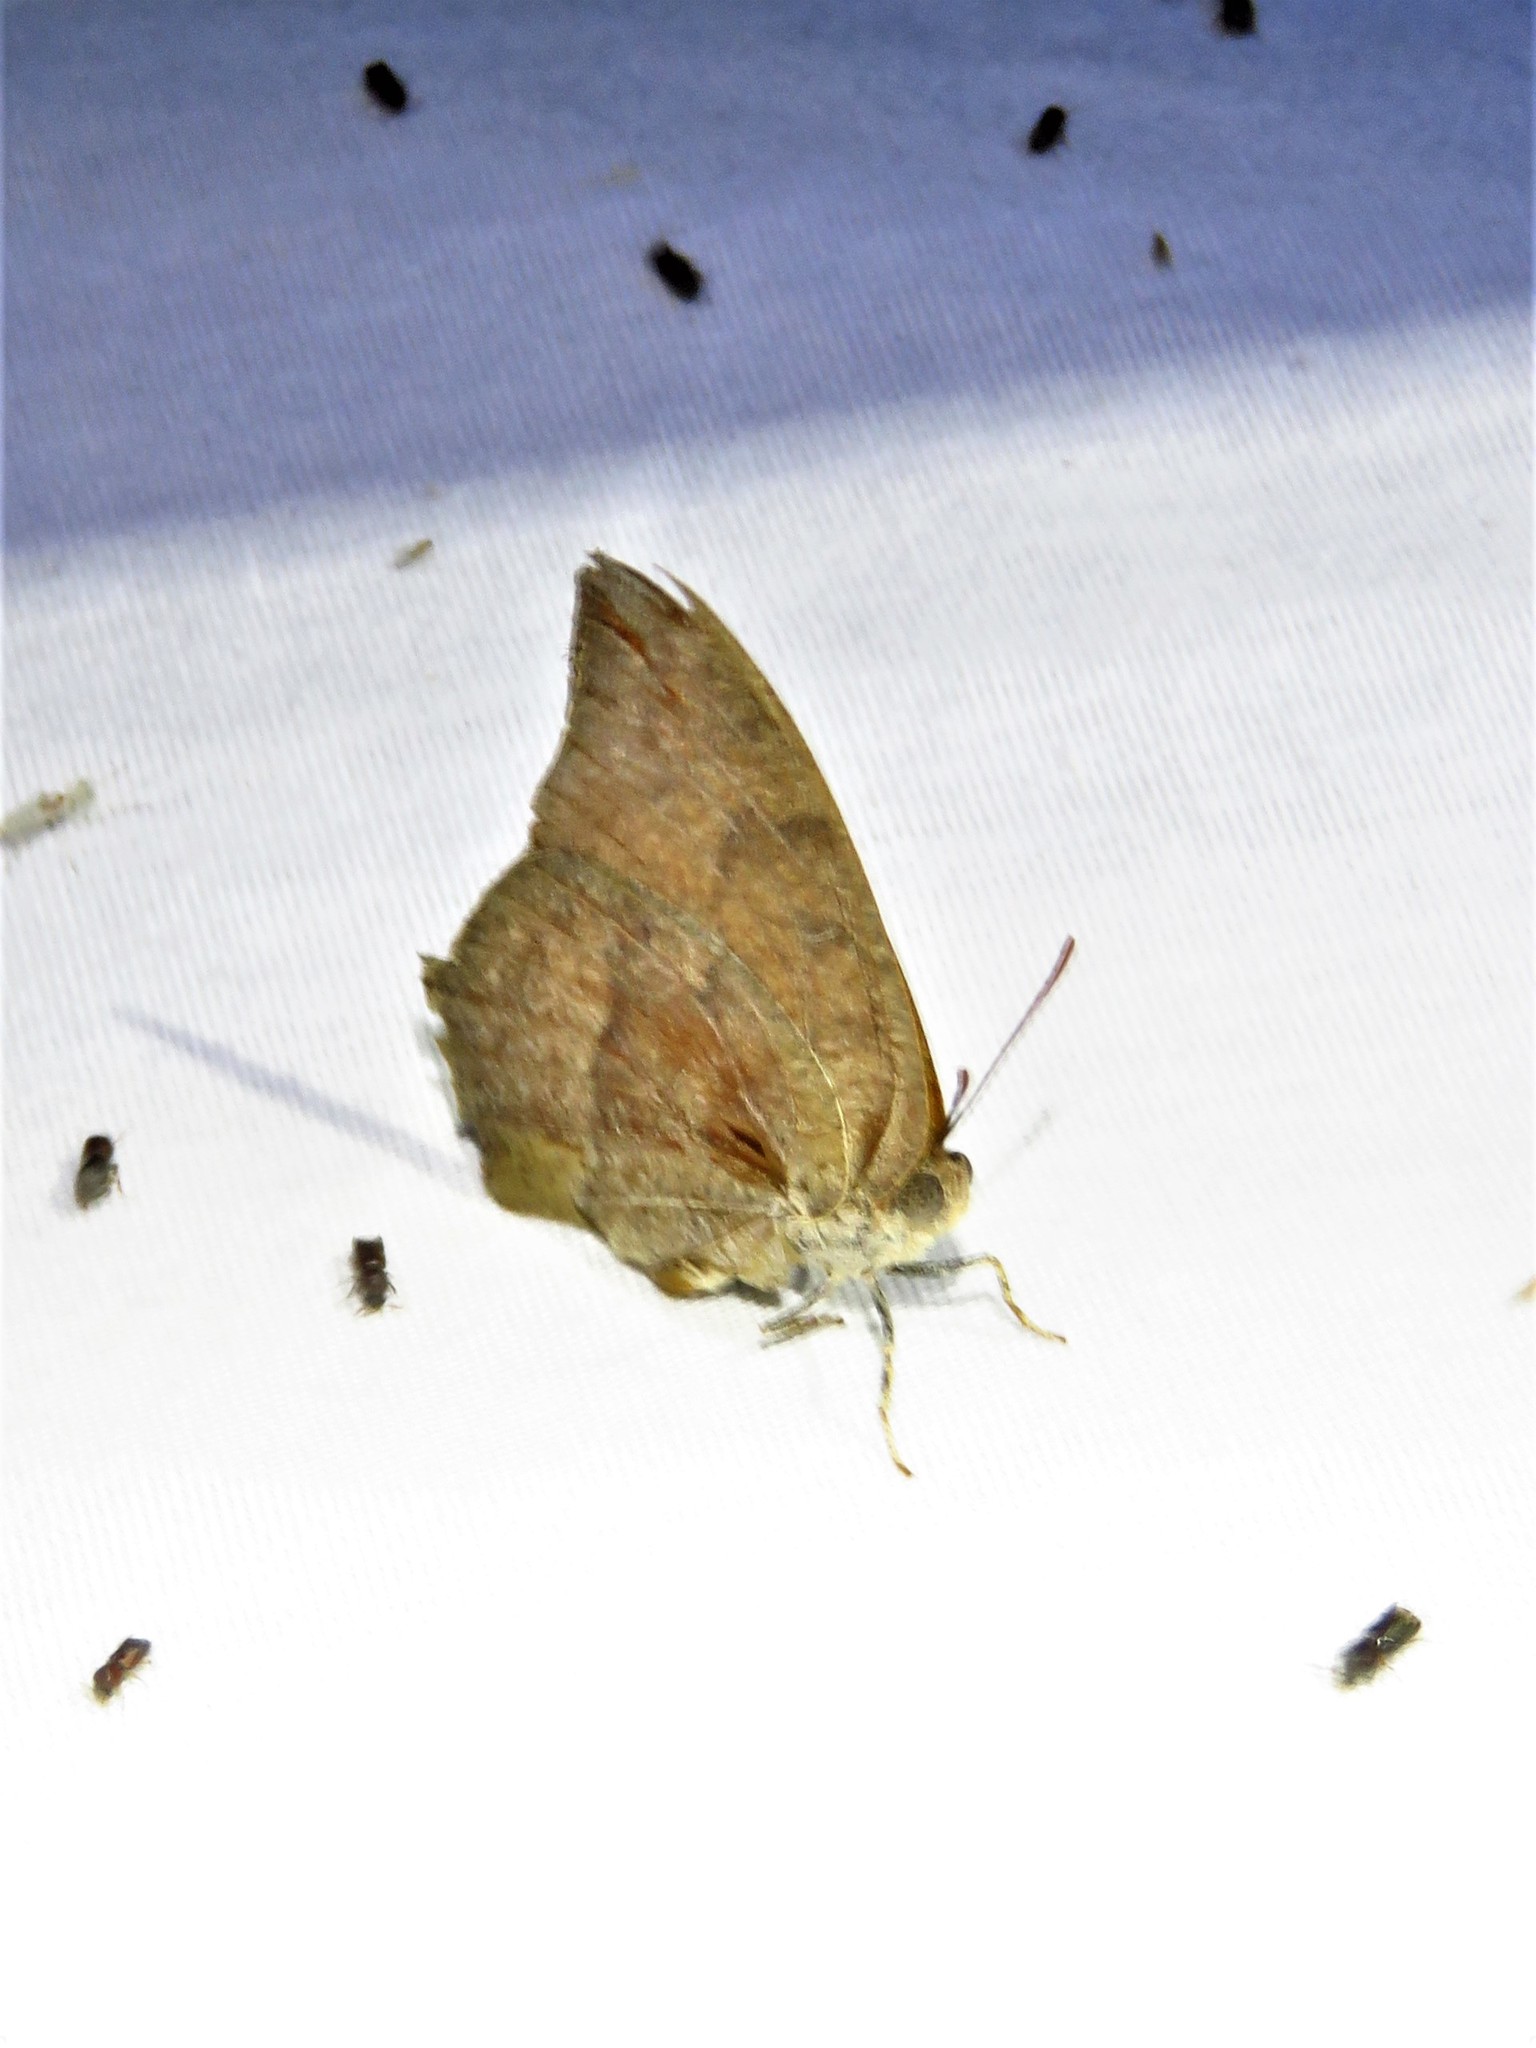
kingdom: Animalia
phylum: Arthropoda
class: Insecta
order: Lepidoptera
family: Nymphalidae
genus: Anaea
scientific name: Anaea andria
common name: Goatweed leafwing
